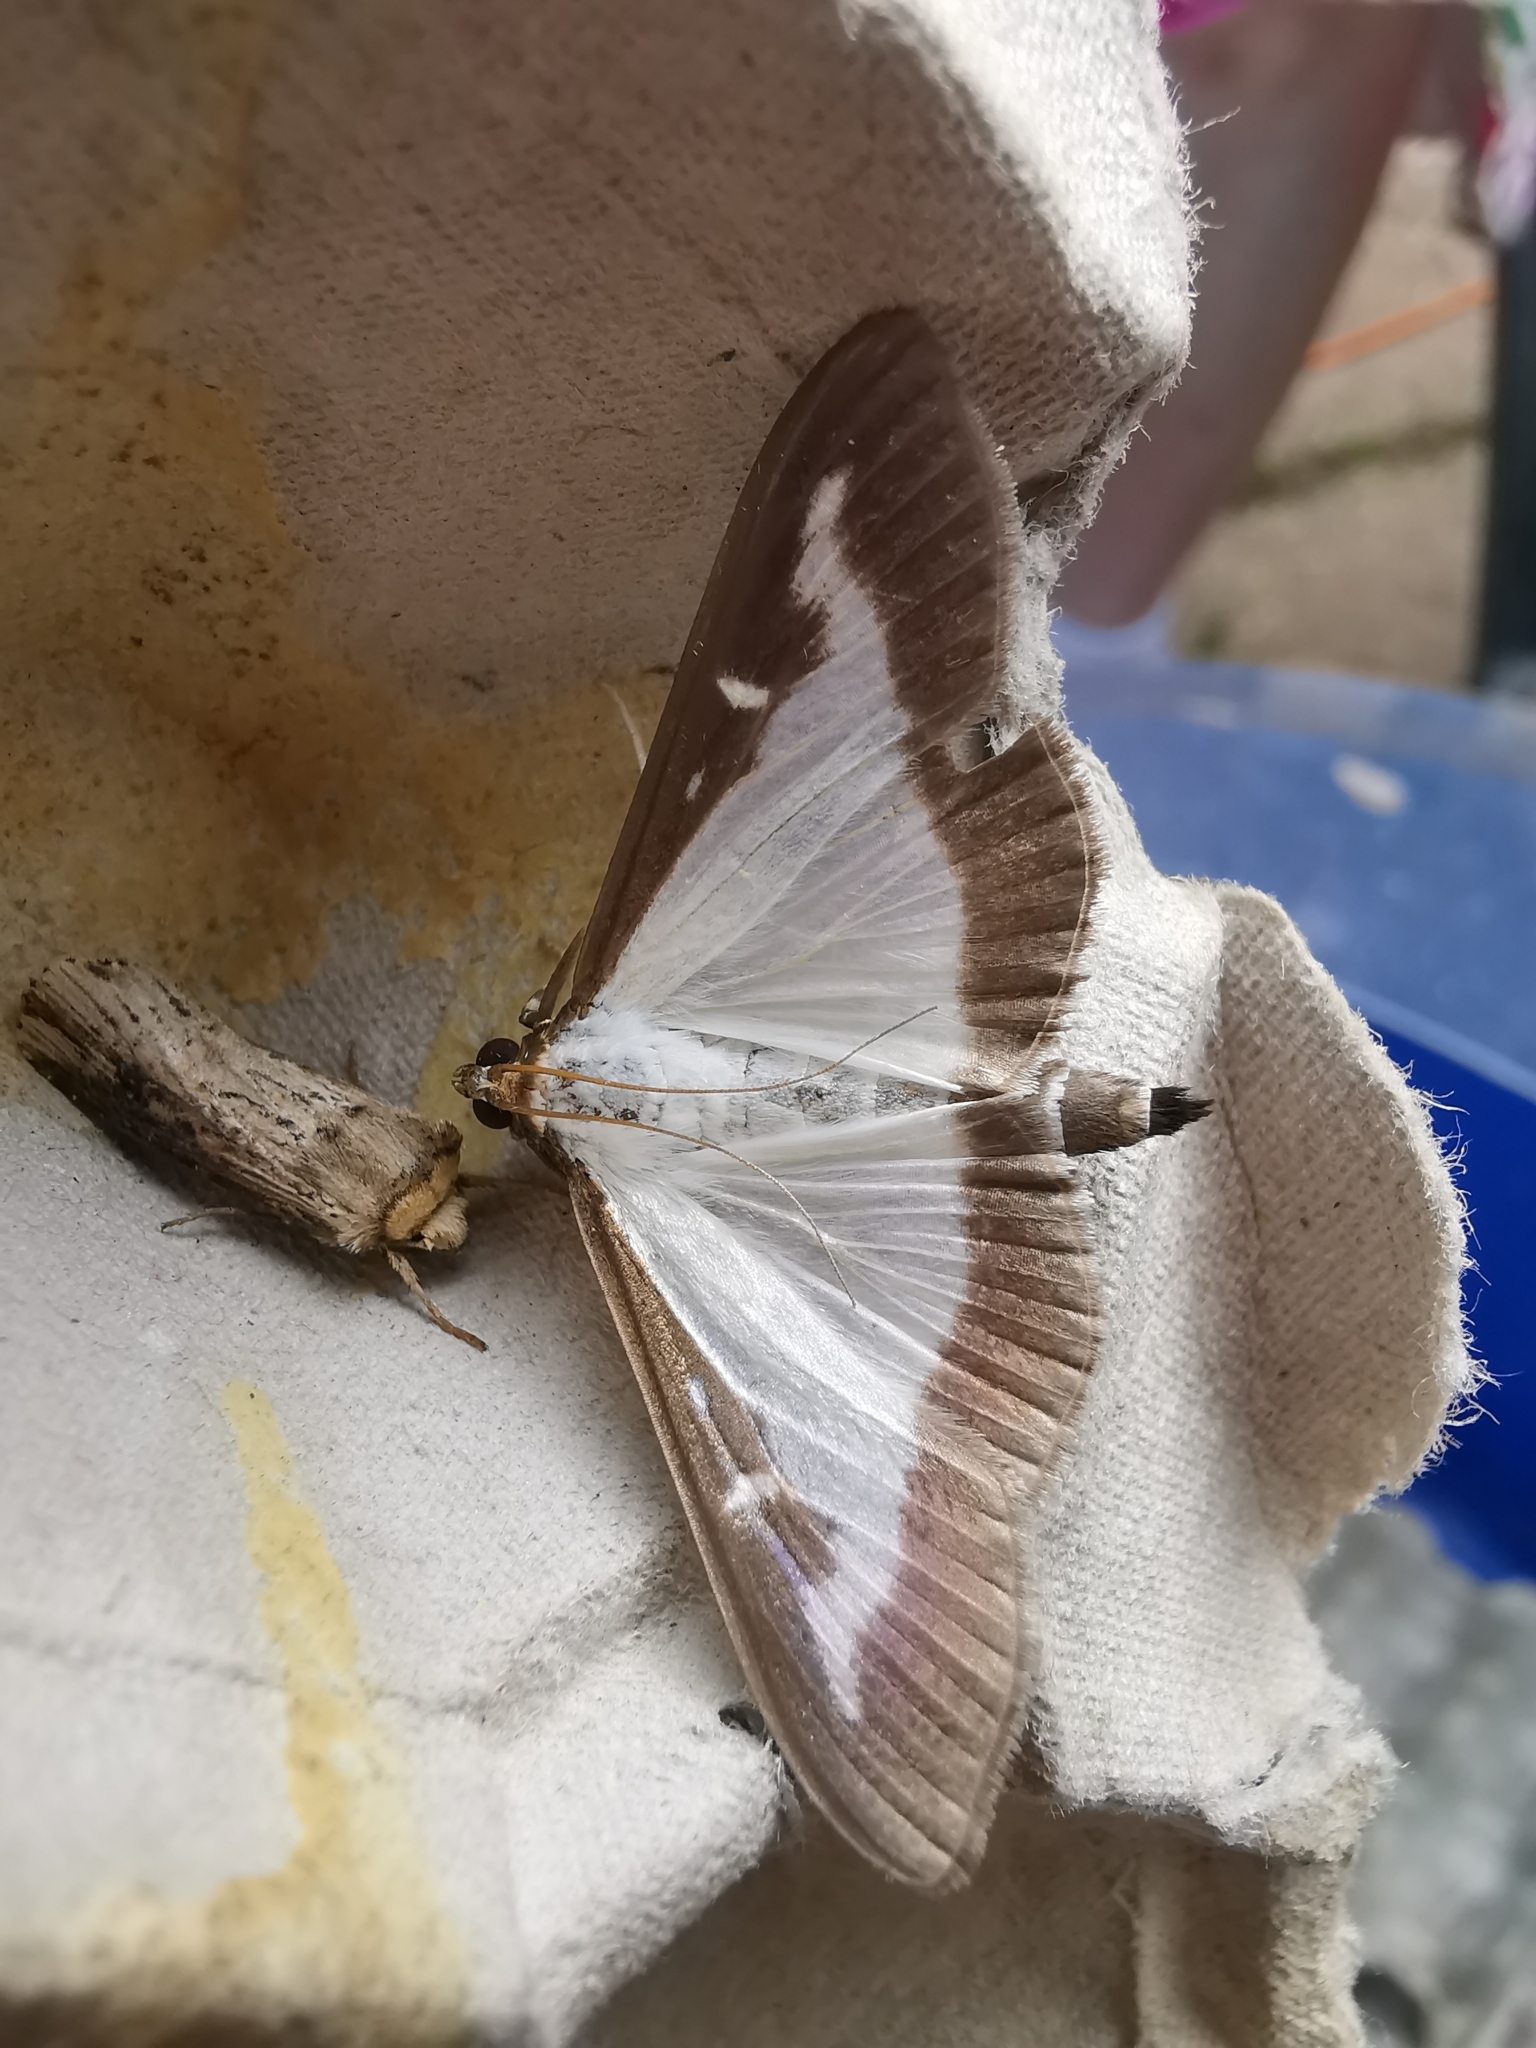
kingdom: Animalia
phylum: Arthropoda
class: Insecta
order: Lepidoptera
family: Crambidae
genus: Cydalima
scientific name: Cydalima perspectalis
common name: Box tree moth
